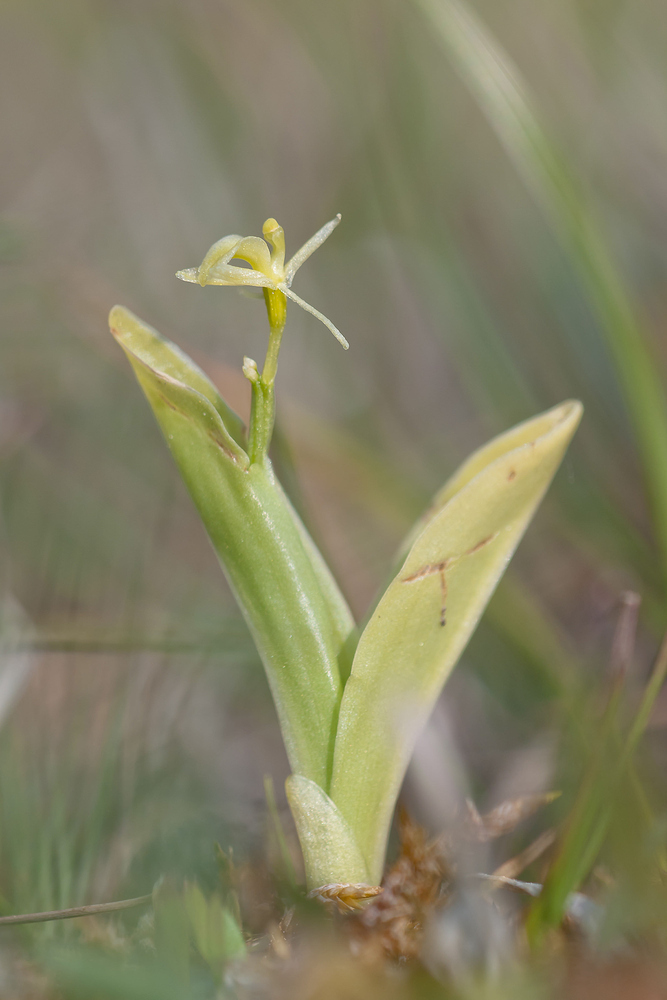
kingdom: Animalia
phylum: Arthropoda
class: Insecta
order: Coleoptera
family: Curculionidae
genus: Liparis
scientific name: Liparis loeselii
